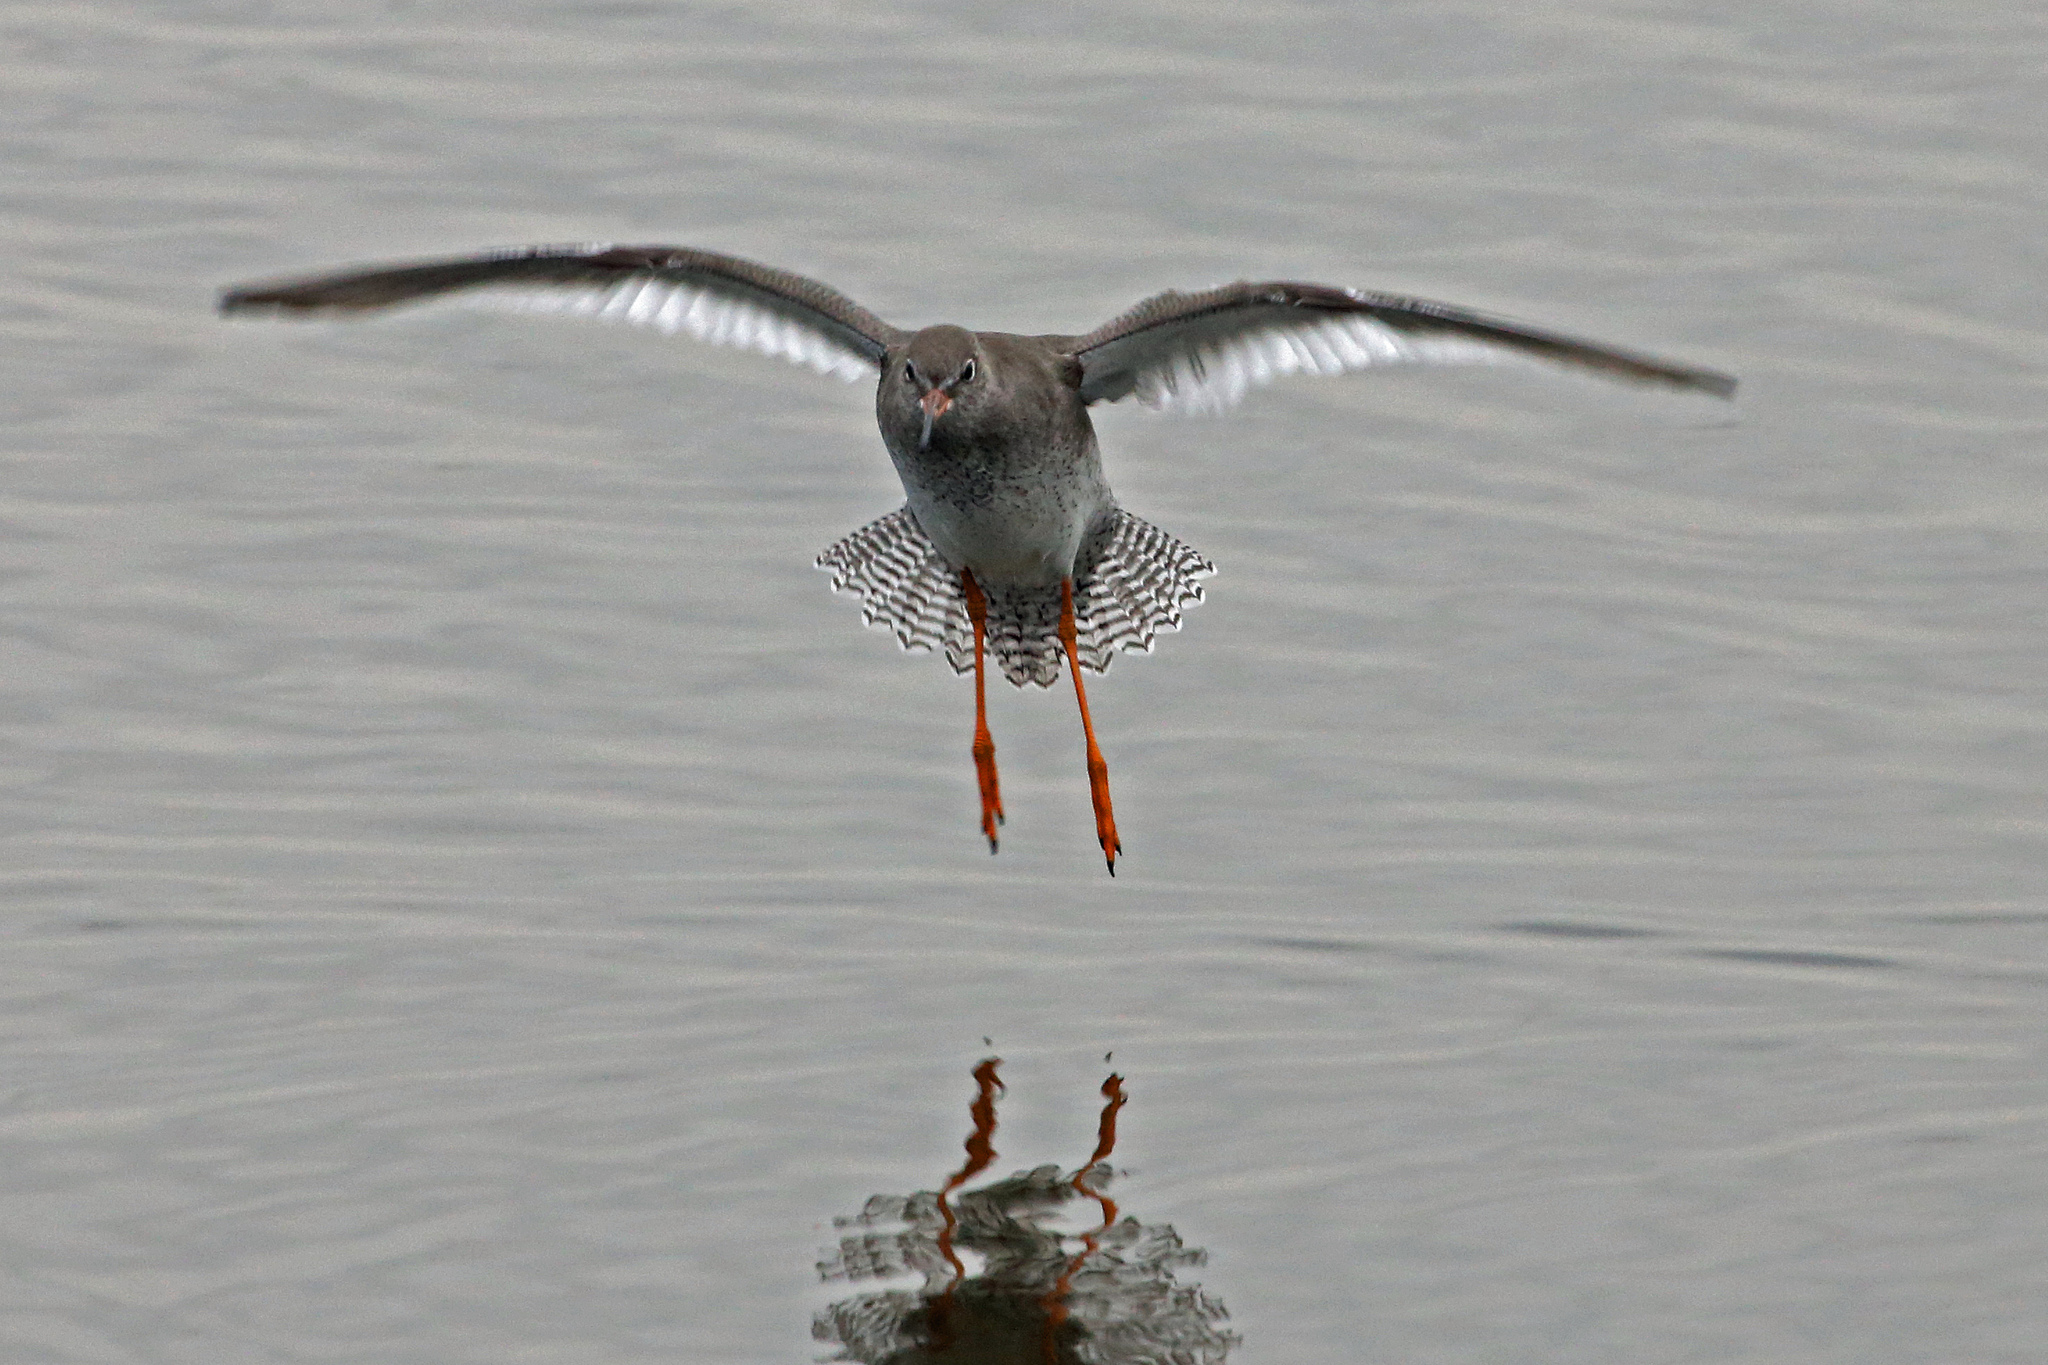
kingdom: Animalia
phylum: Chordata
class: Aves
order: Charadriiformes
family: Scolopacidae
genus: Tringa
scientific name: Tringa totanus
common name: Common redshank
